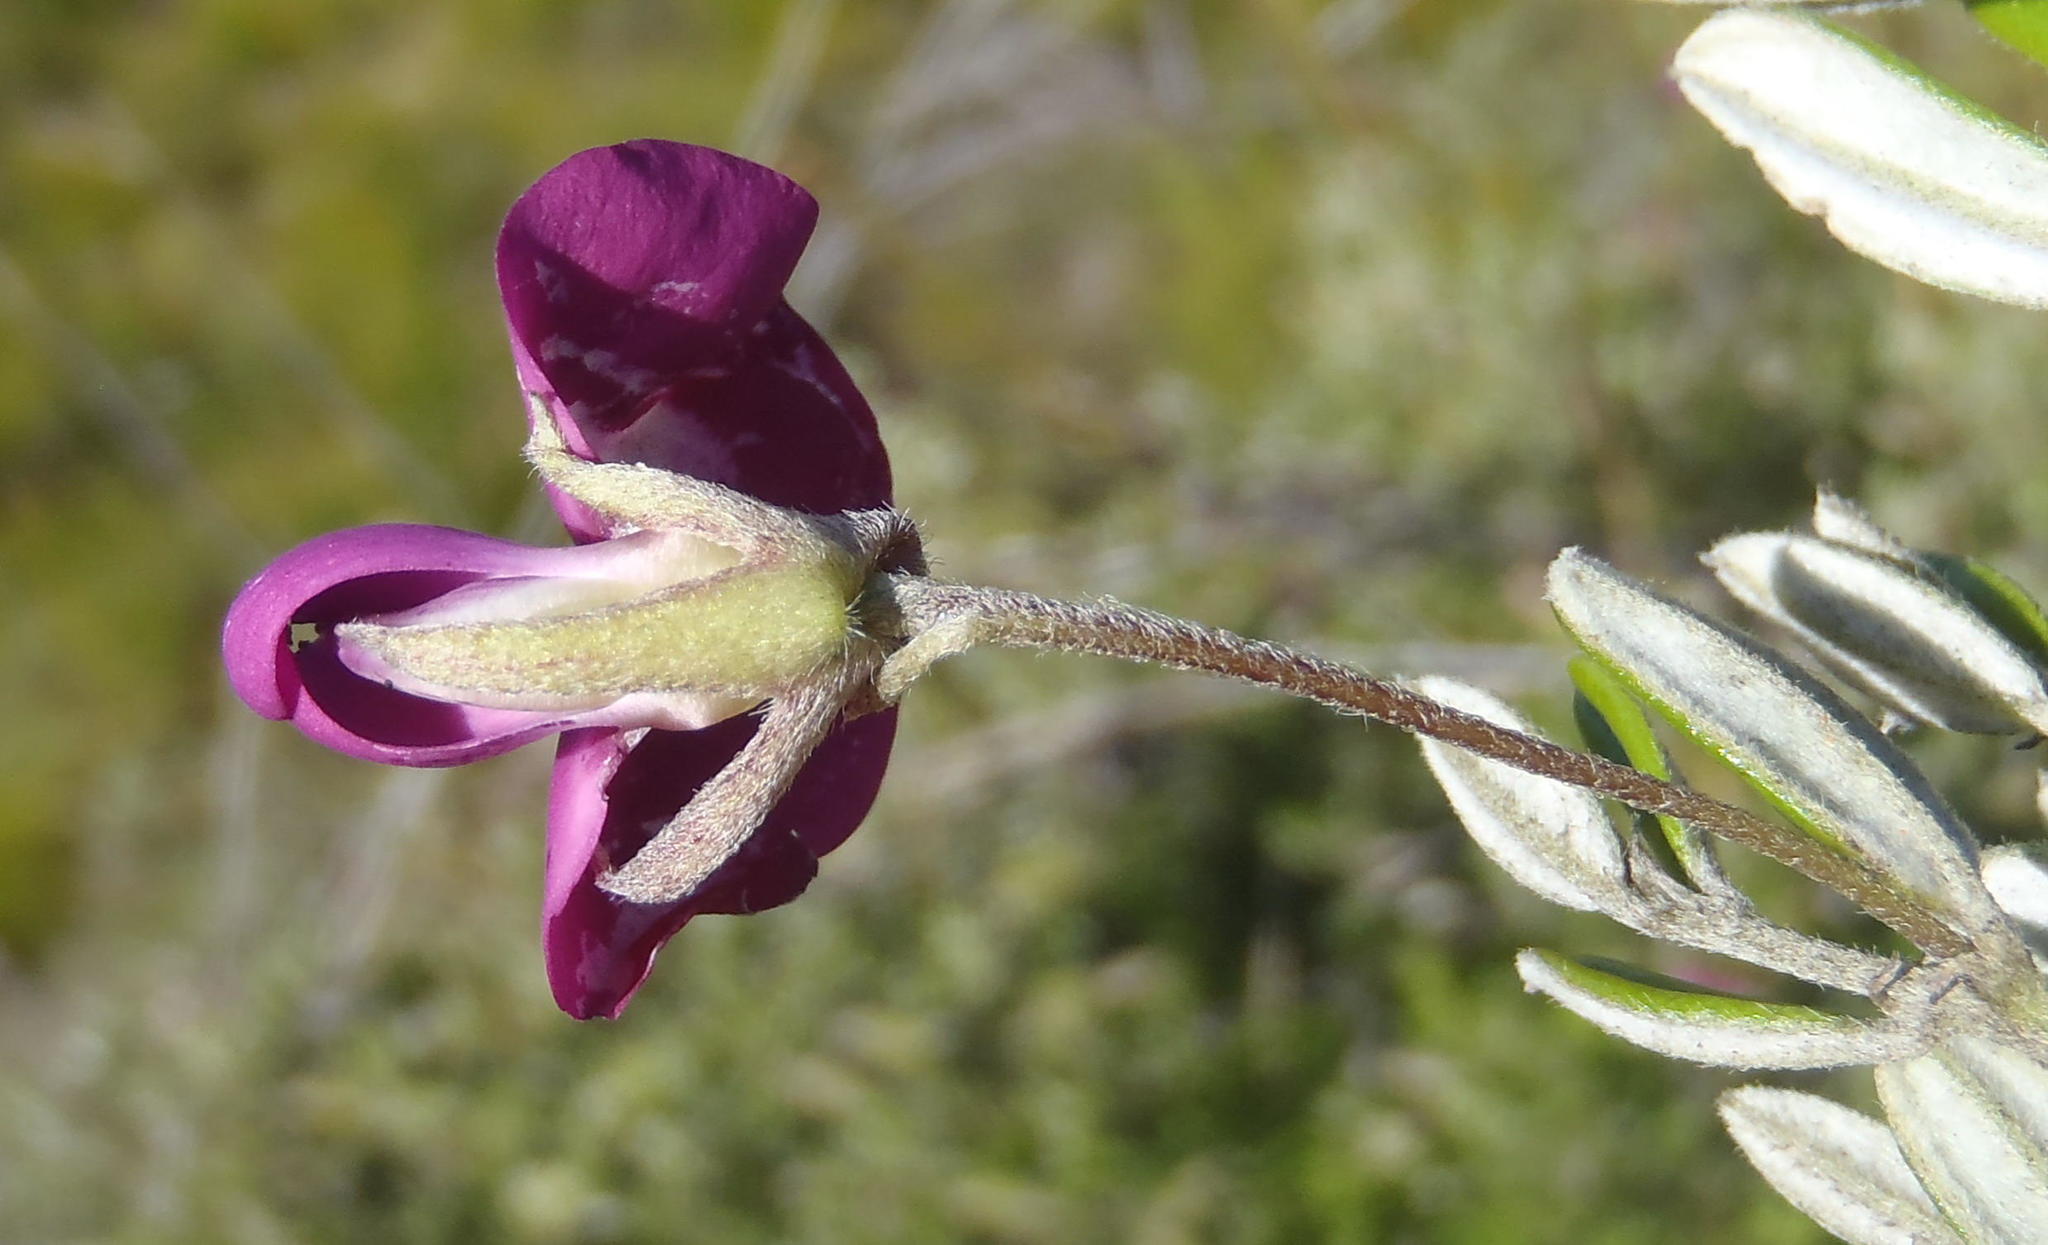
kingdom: Plantae
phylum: Tracheophyta
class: Magnoliopsida
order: Fabales
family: Fabaceae
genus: Podalyria
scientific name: Podalyria buxifolia
